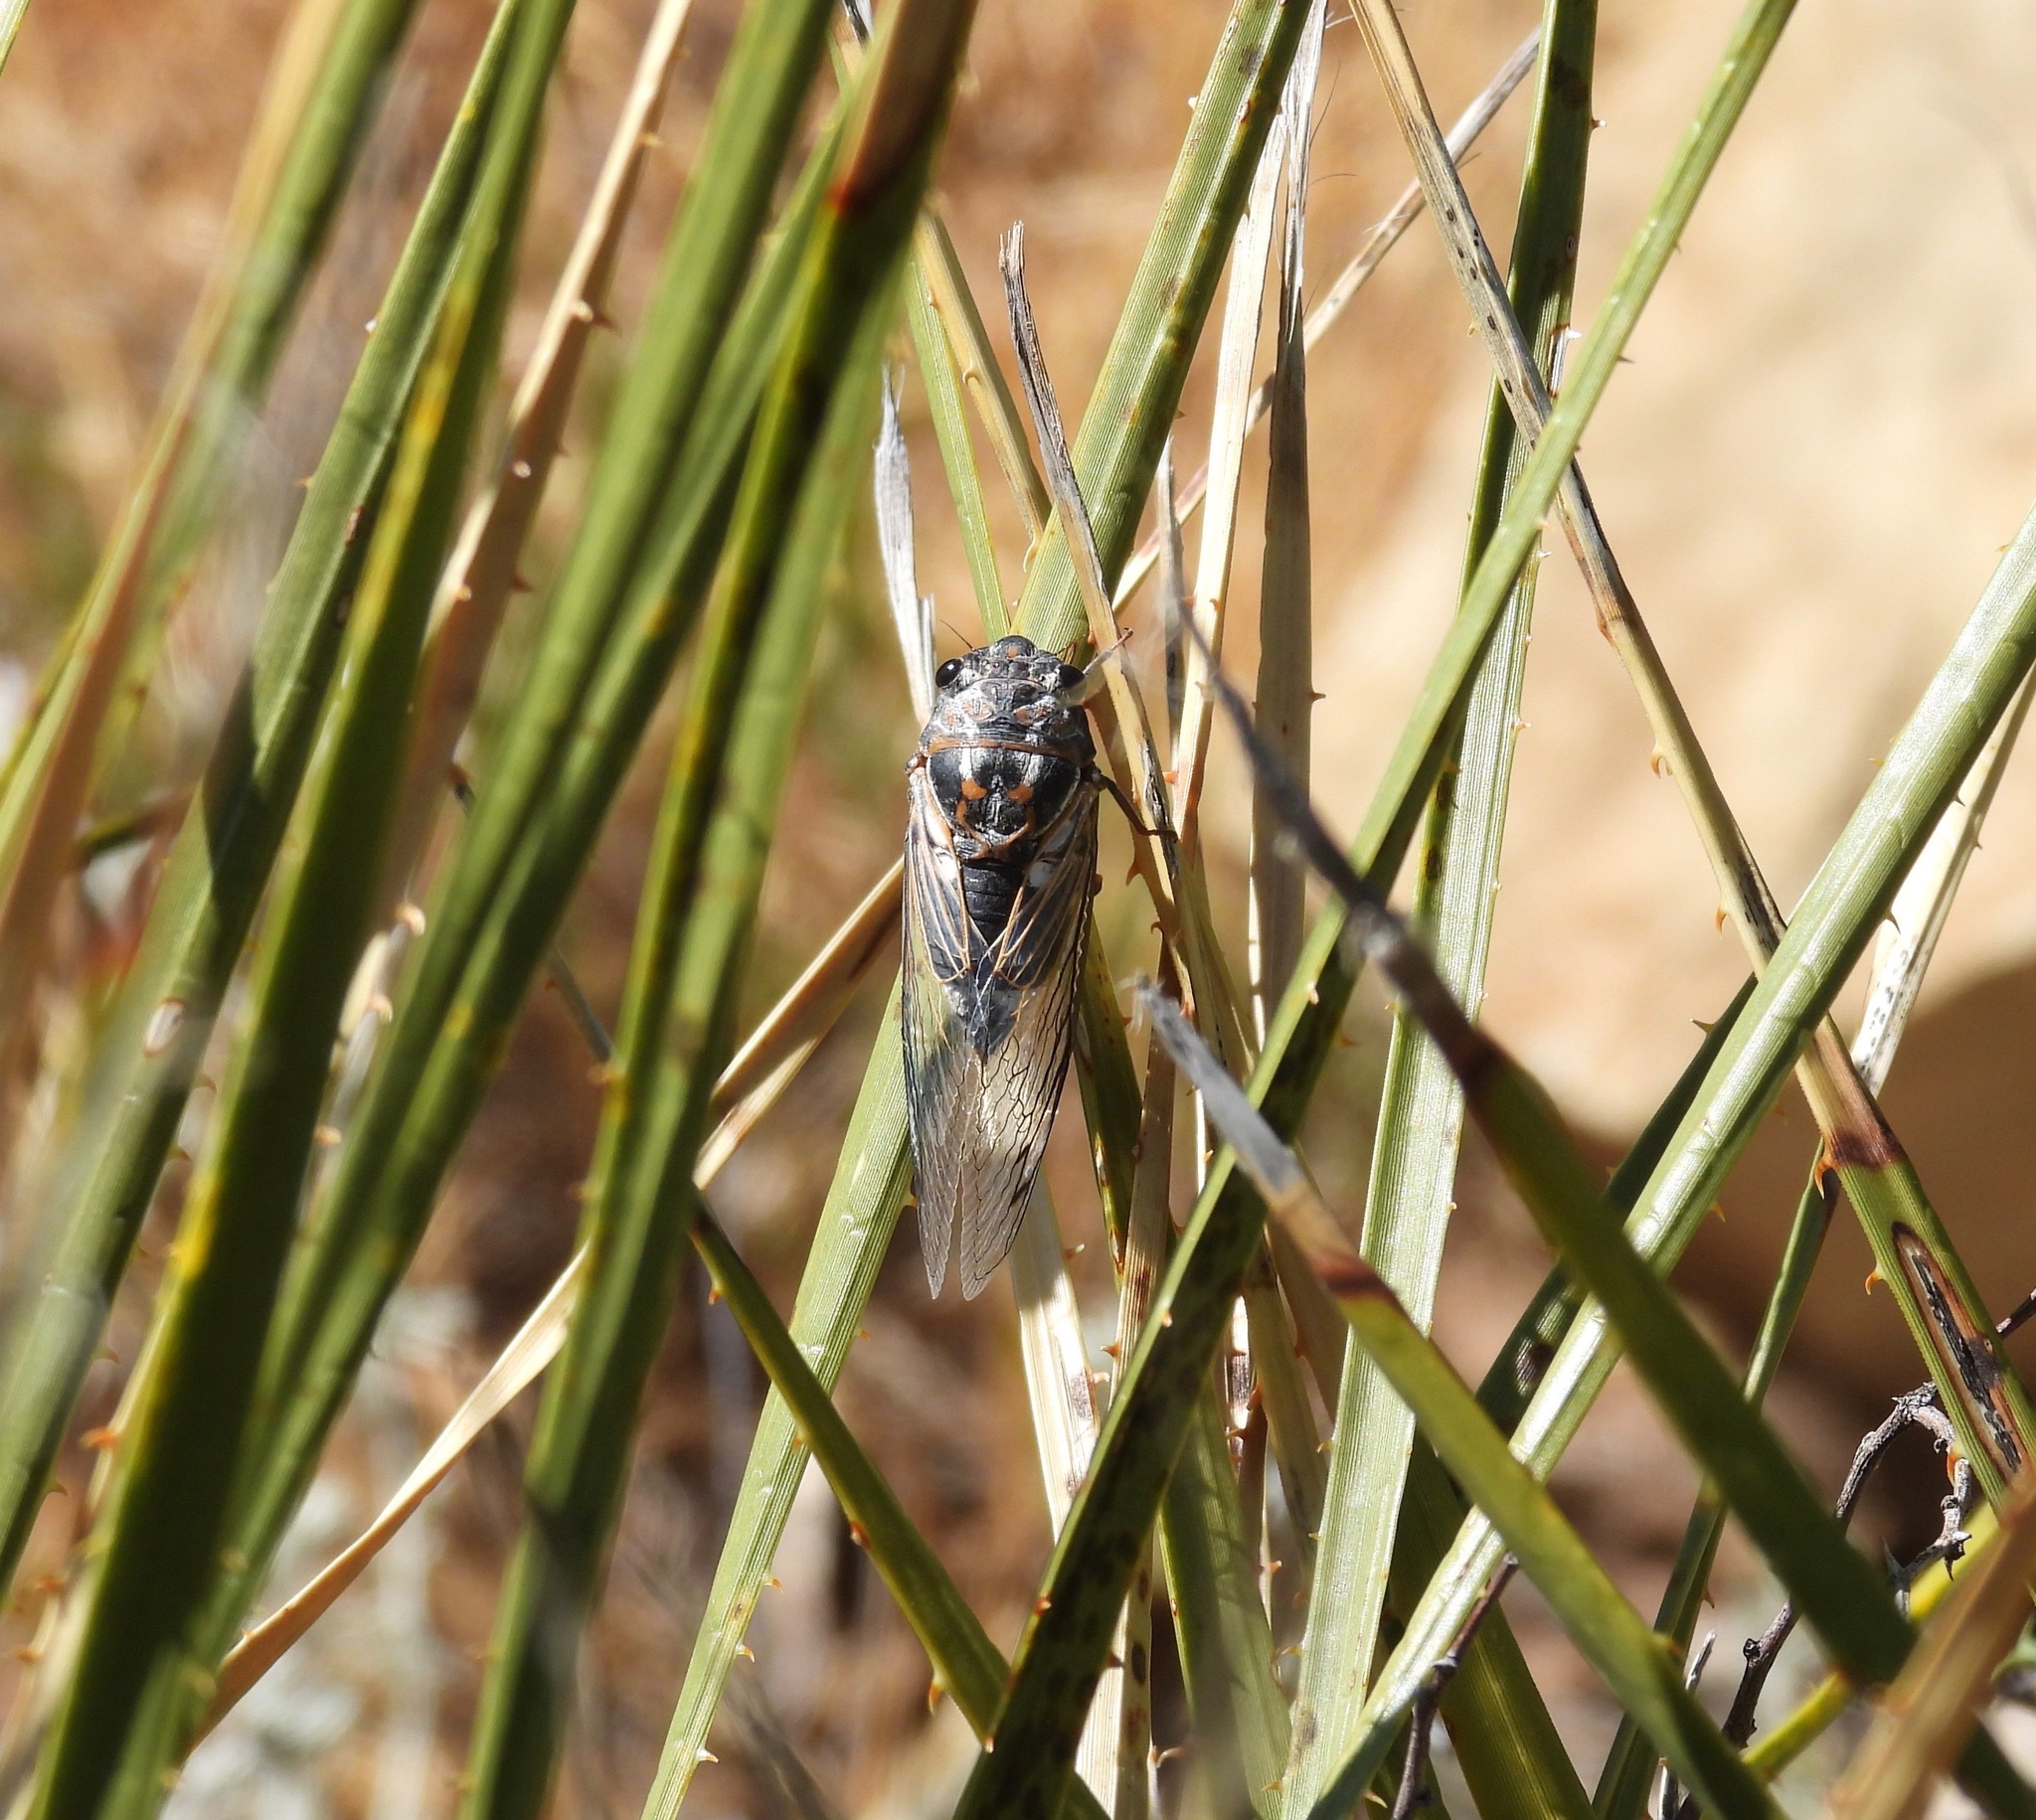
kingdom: Animalia
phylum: Arthropoda
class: Insecta
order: Hemiptera
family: Cicadidae
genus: Hadoa
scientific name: Hadoa townsendii
